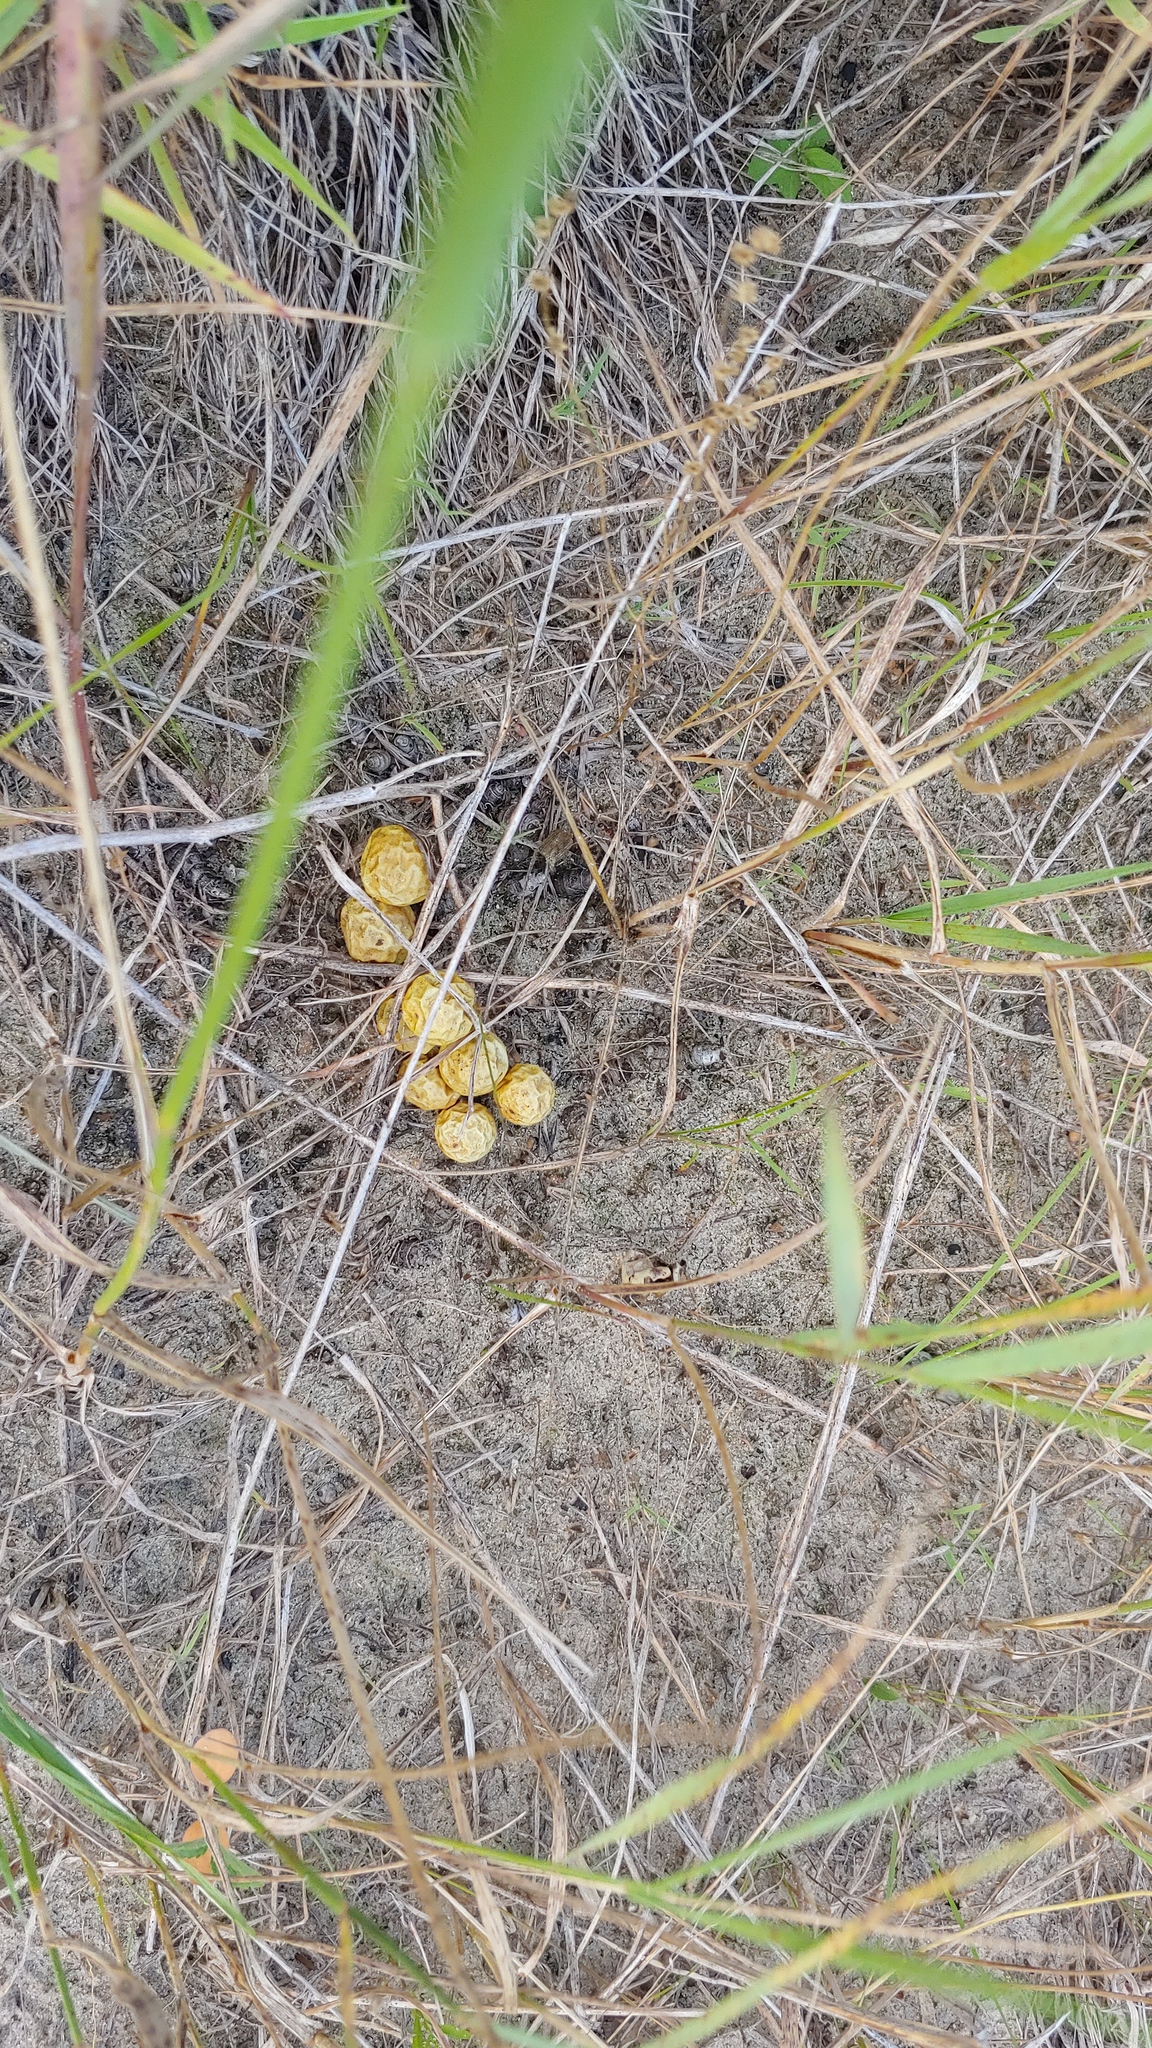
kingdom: Plantae
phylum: Tracheophyta
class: Magnoliopsida
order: Solanales
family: Solanaceae
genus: Solanum
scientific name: Solanum carolinense
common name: Horse-nettle
